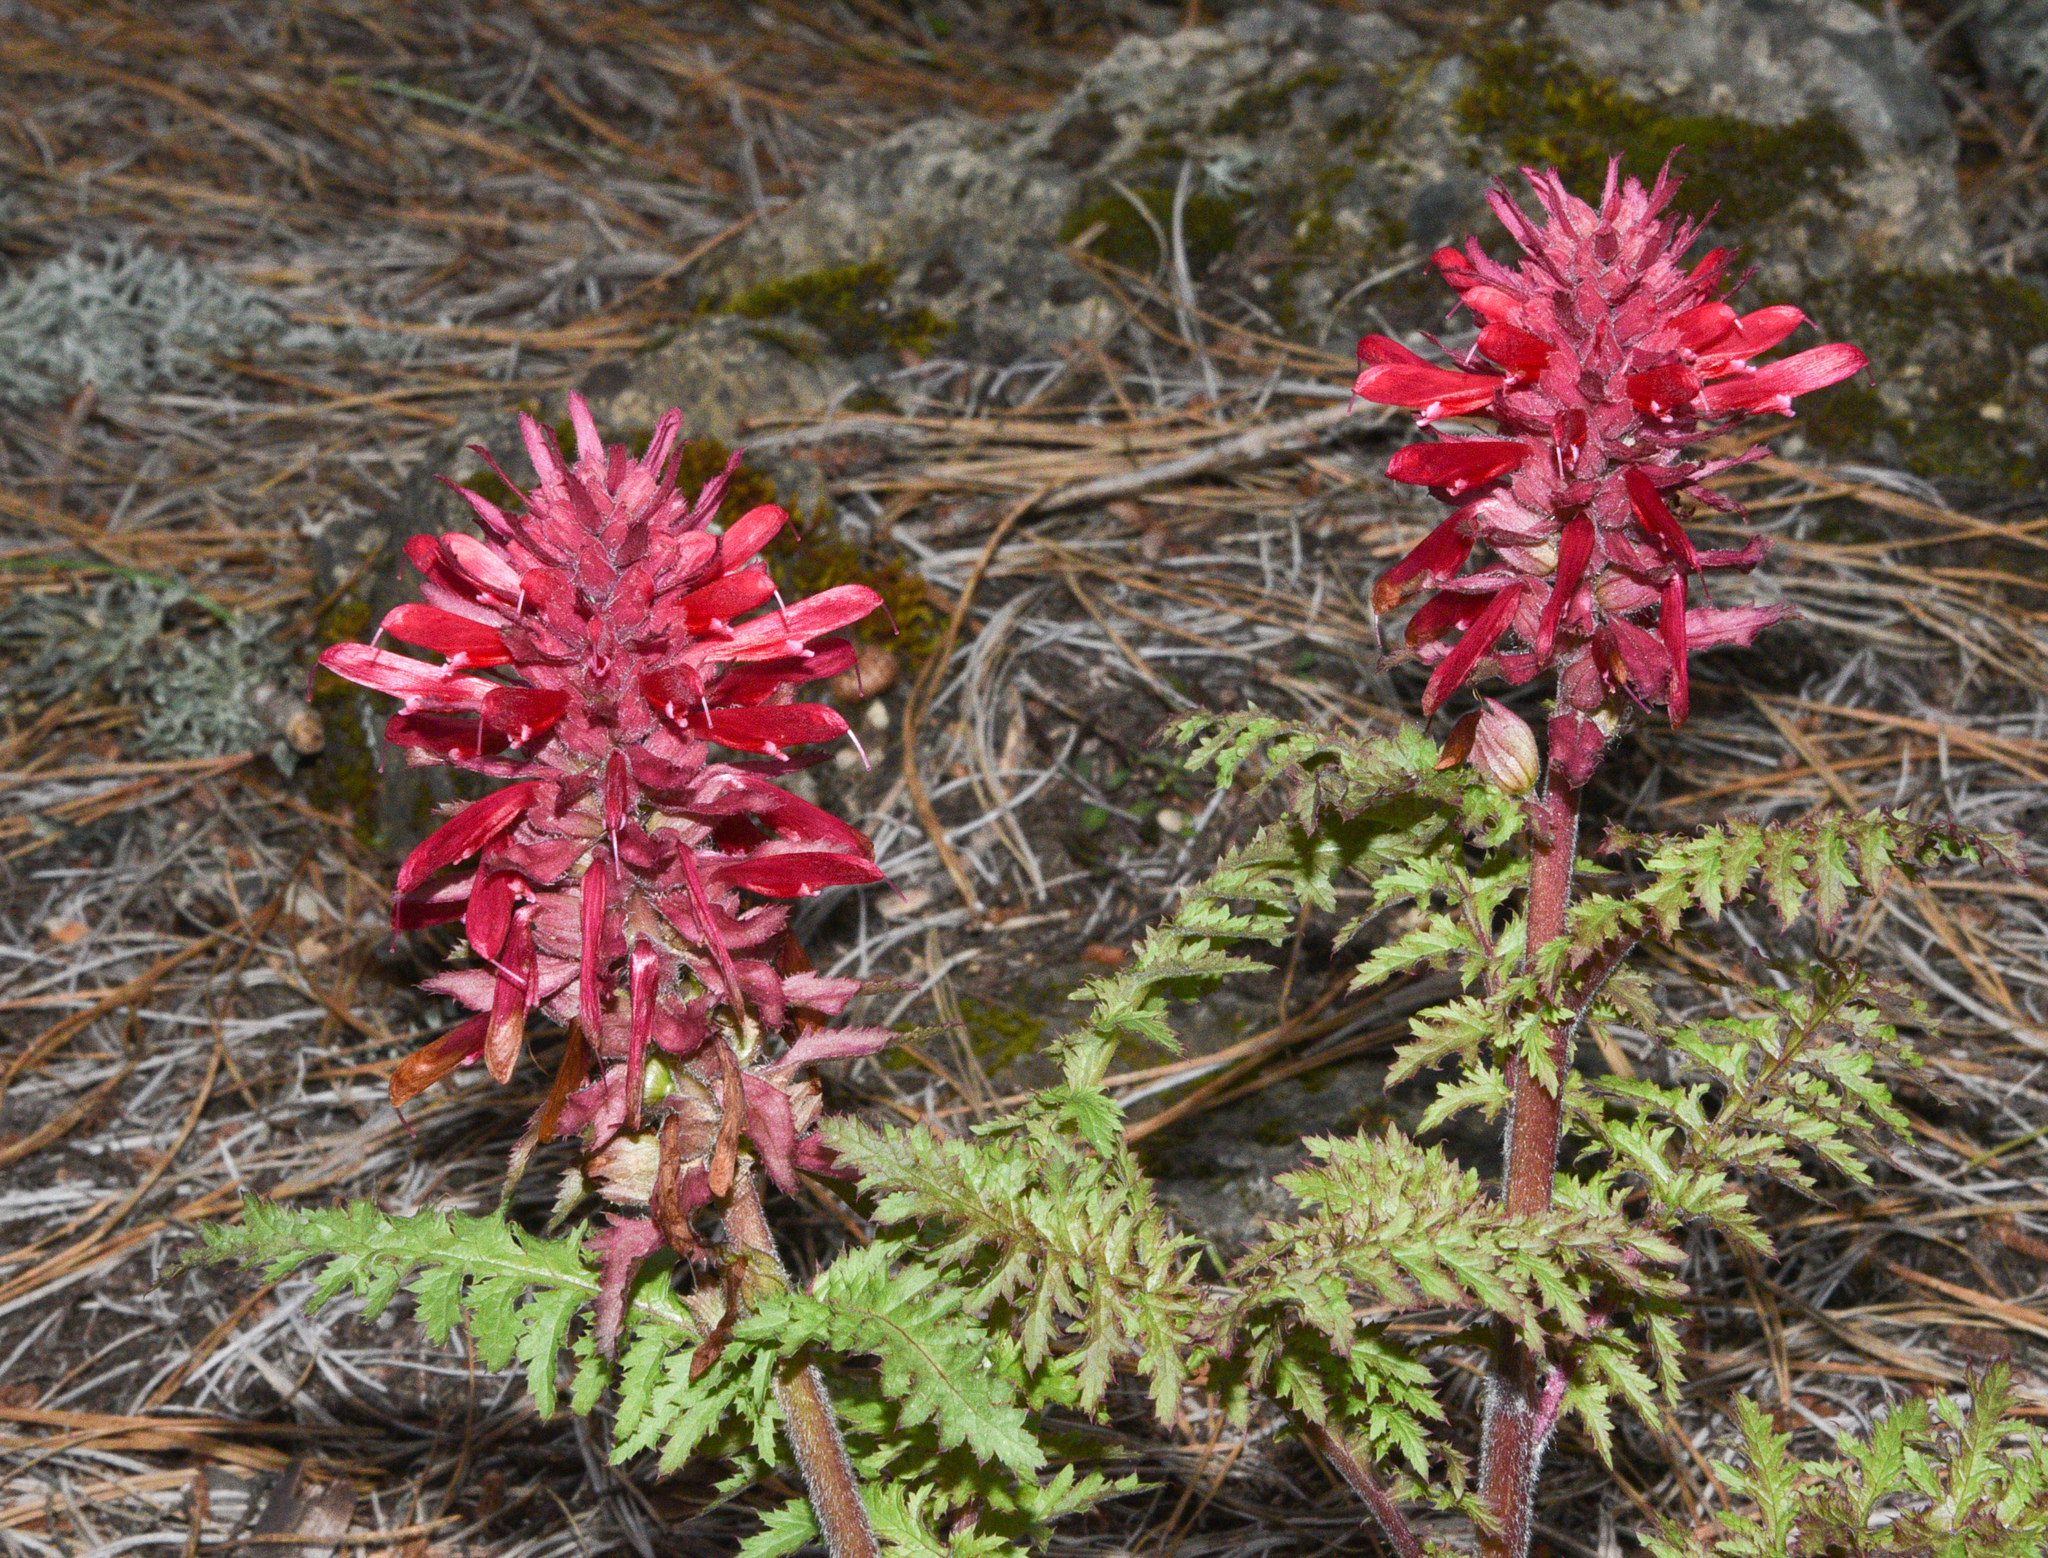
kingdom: Plantae
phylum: Tracheophyta
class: Magnoliopsida
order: Lamiales
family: Orobanchaceae
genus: Pedicularis
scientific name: Pedicularis densiflora
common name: Indian warrior
